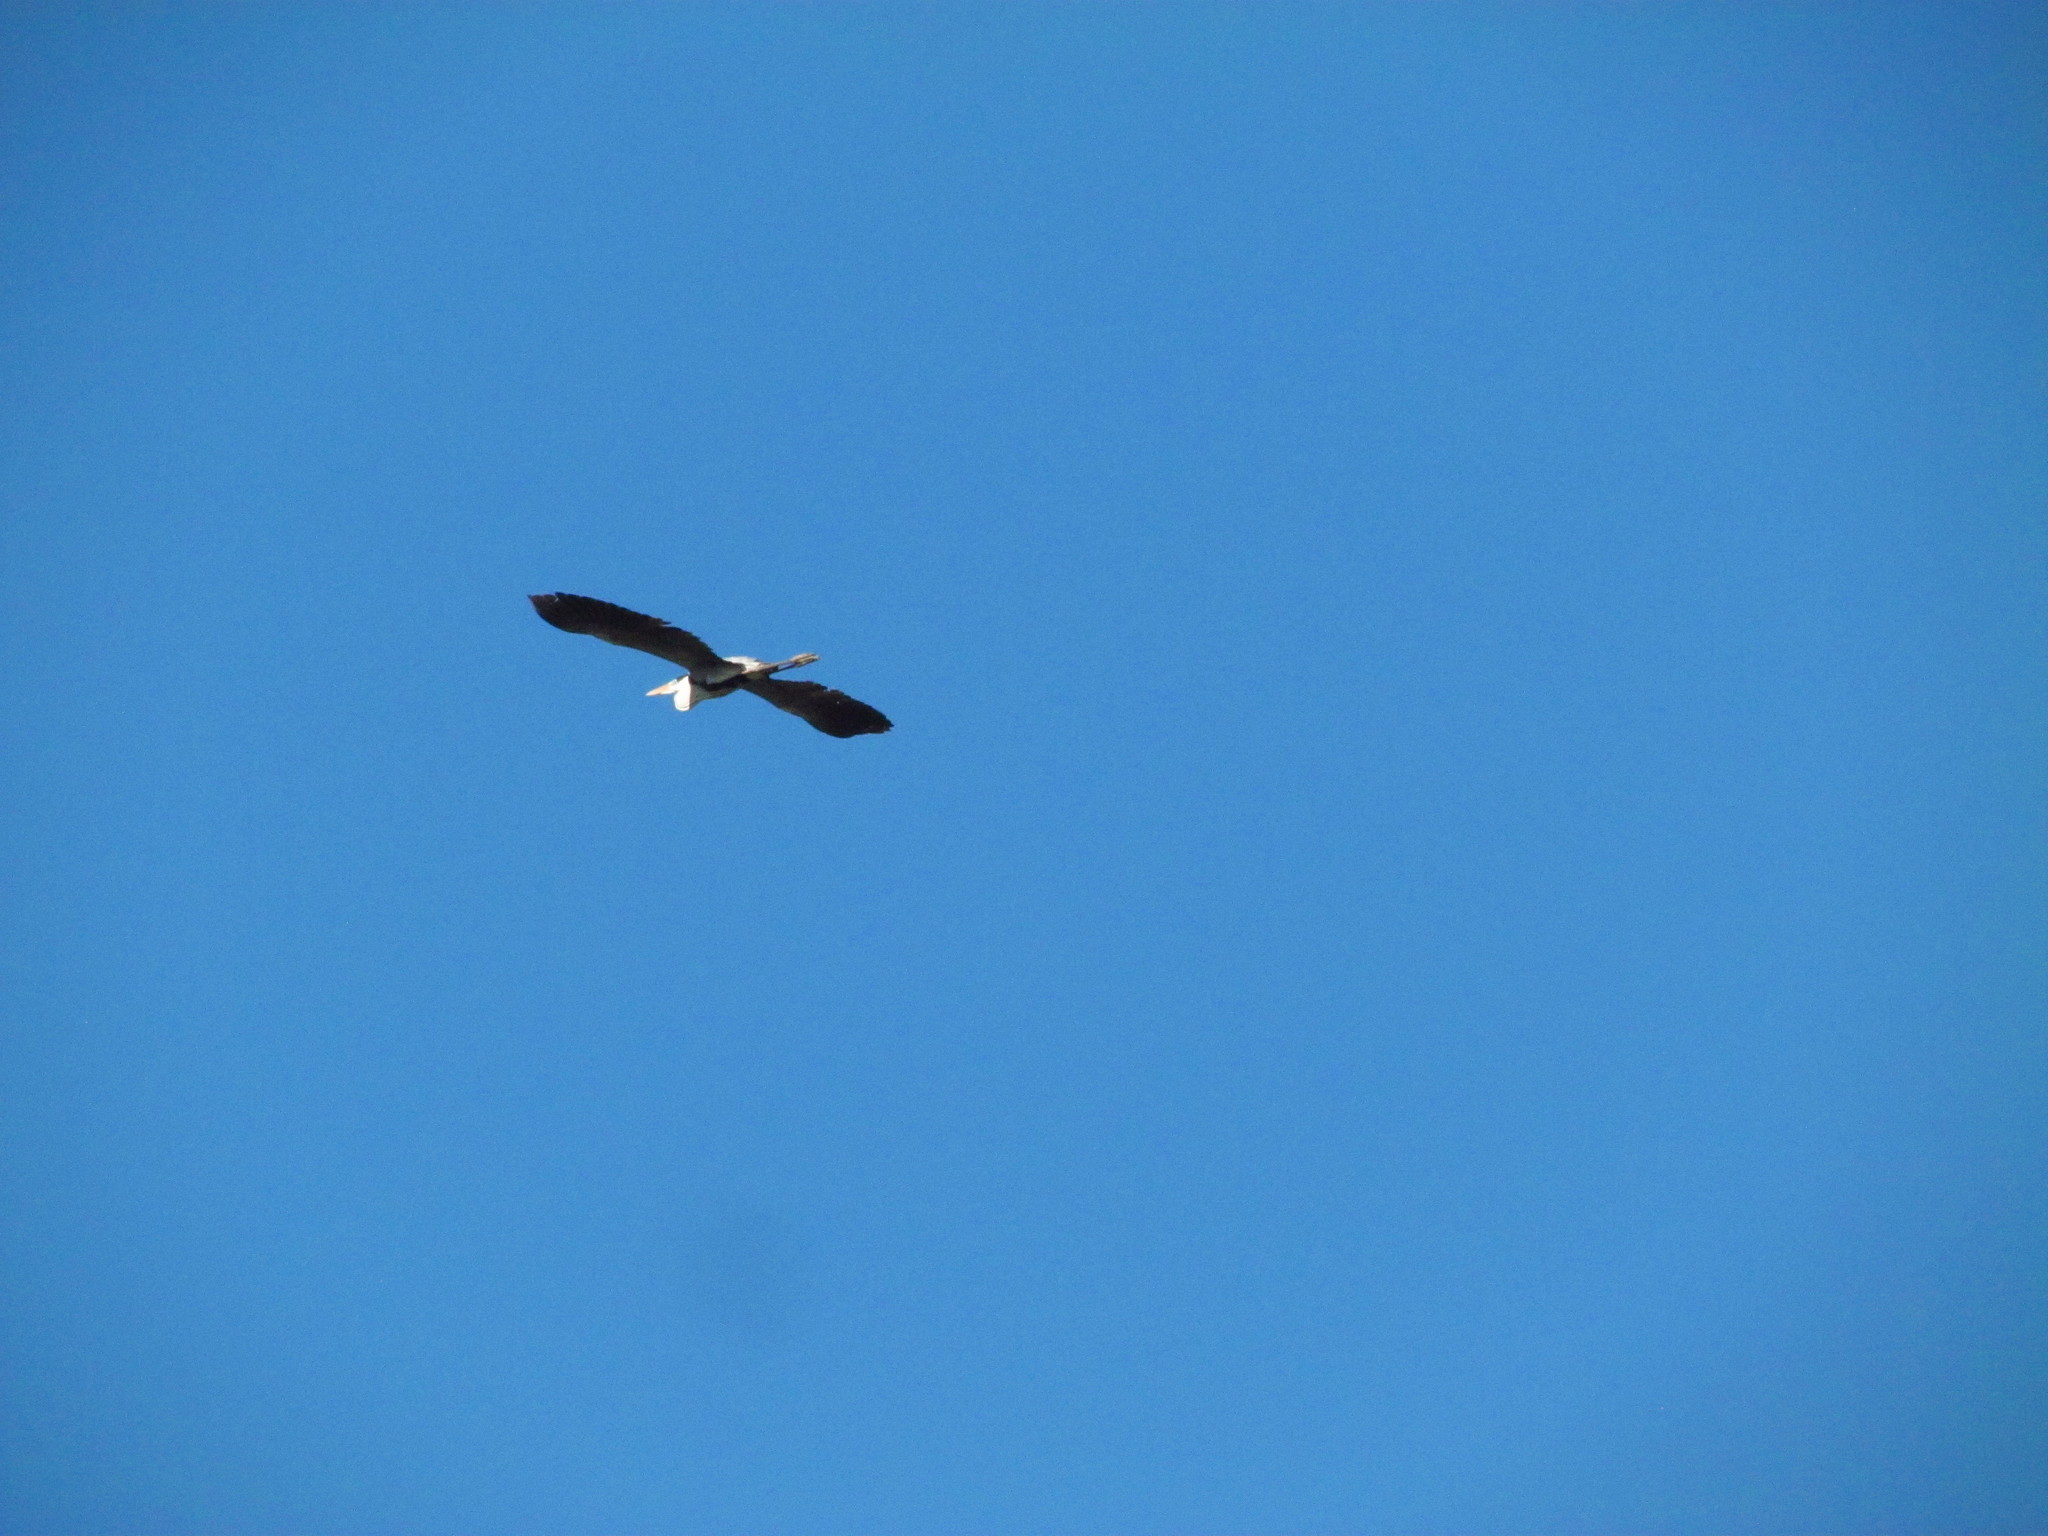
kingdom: Animalia
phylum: Chordata
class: Aves
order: Pelecaniformes
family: Ardeidae
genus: Ardea
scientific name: Ardea cocoi
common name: Cocoi heron
